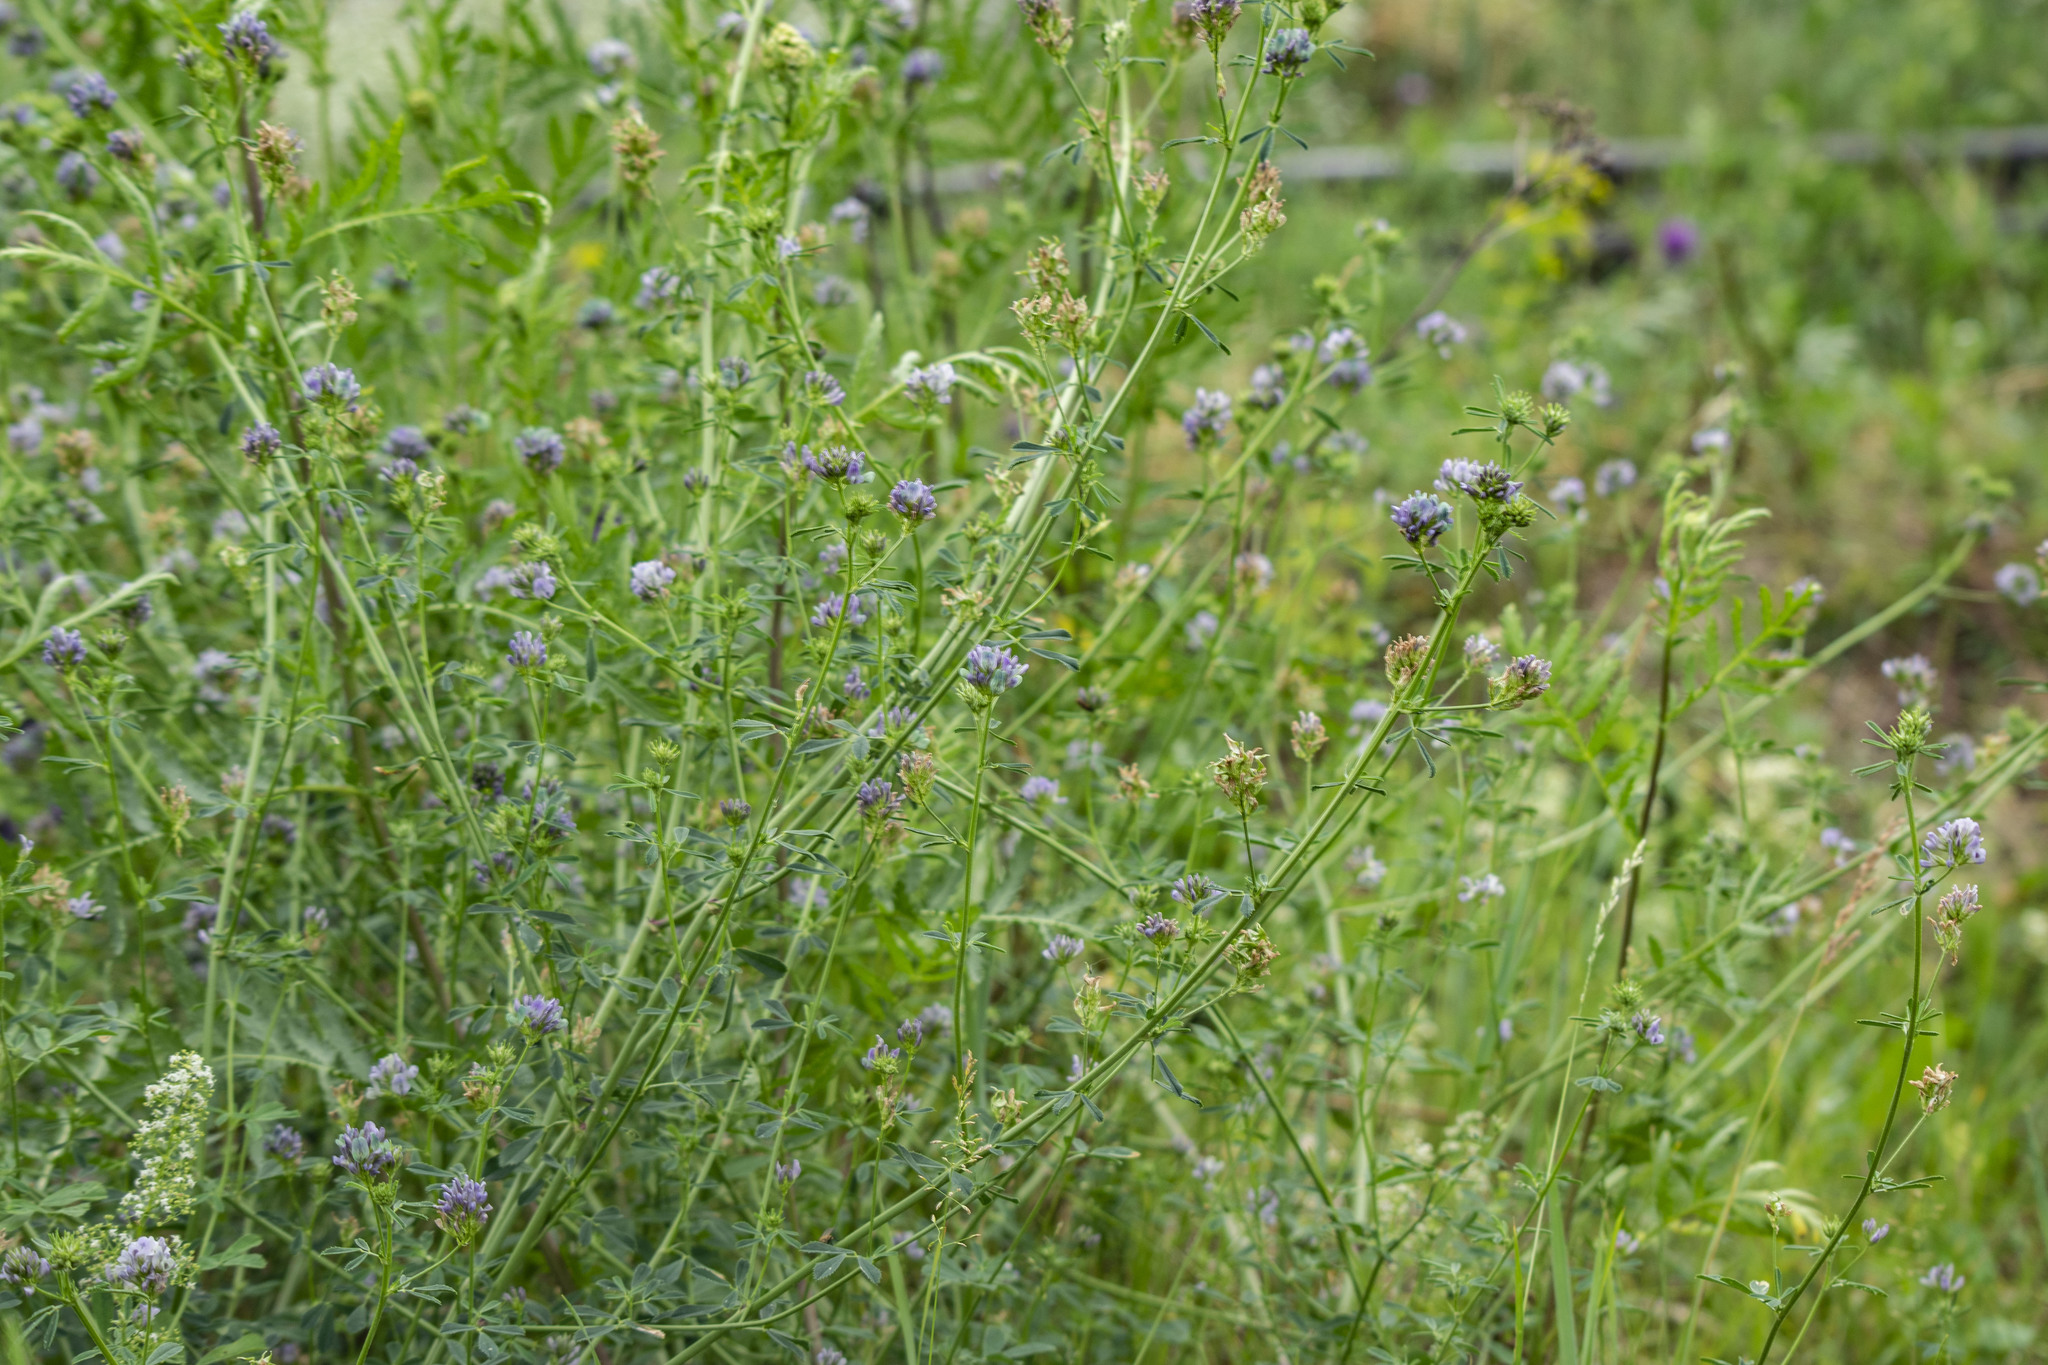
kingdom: Plantae
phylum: Tracheophyta
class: Magnoliopsida
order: Fabales
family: Fabaceae
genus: Medicago
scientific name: Medicago varia
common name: Sand lucerne
